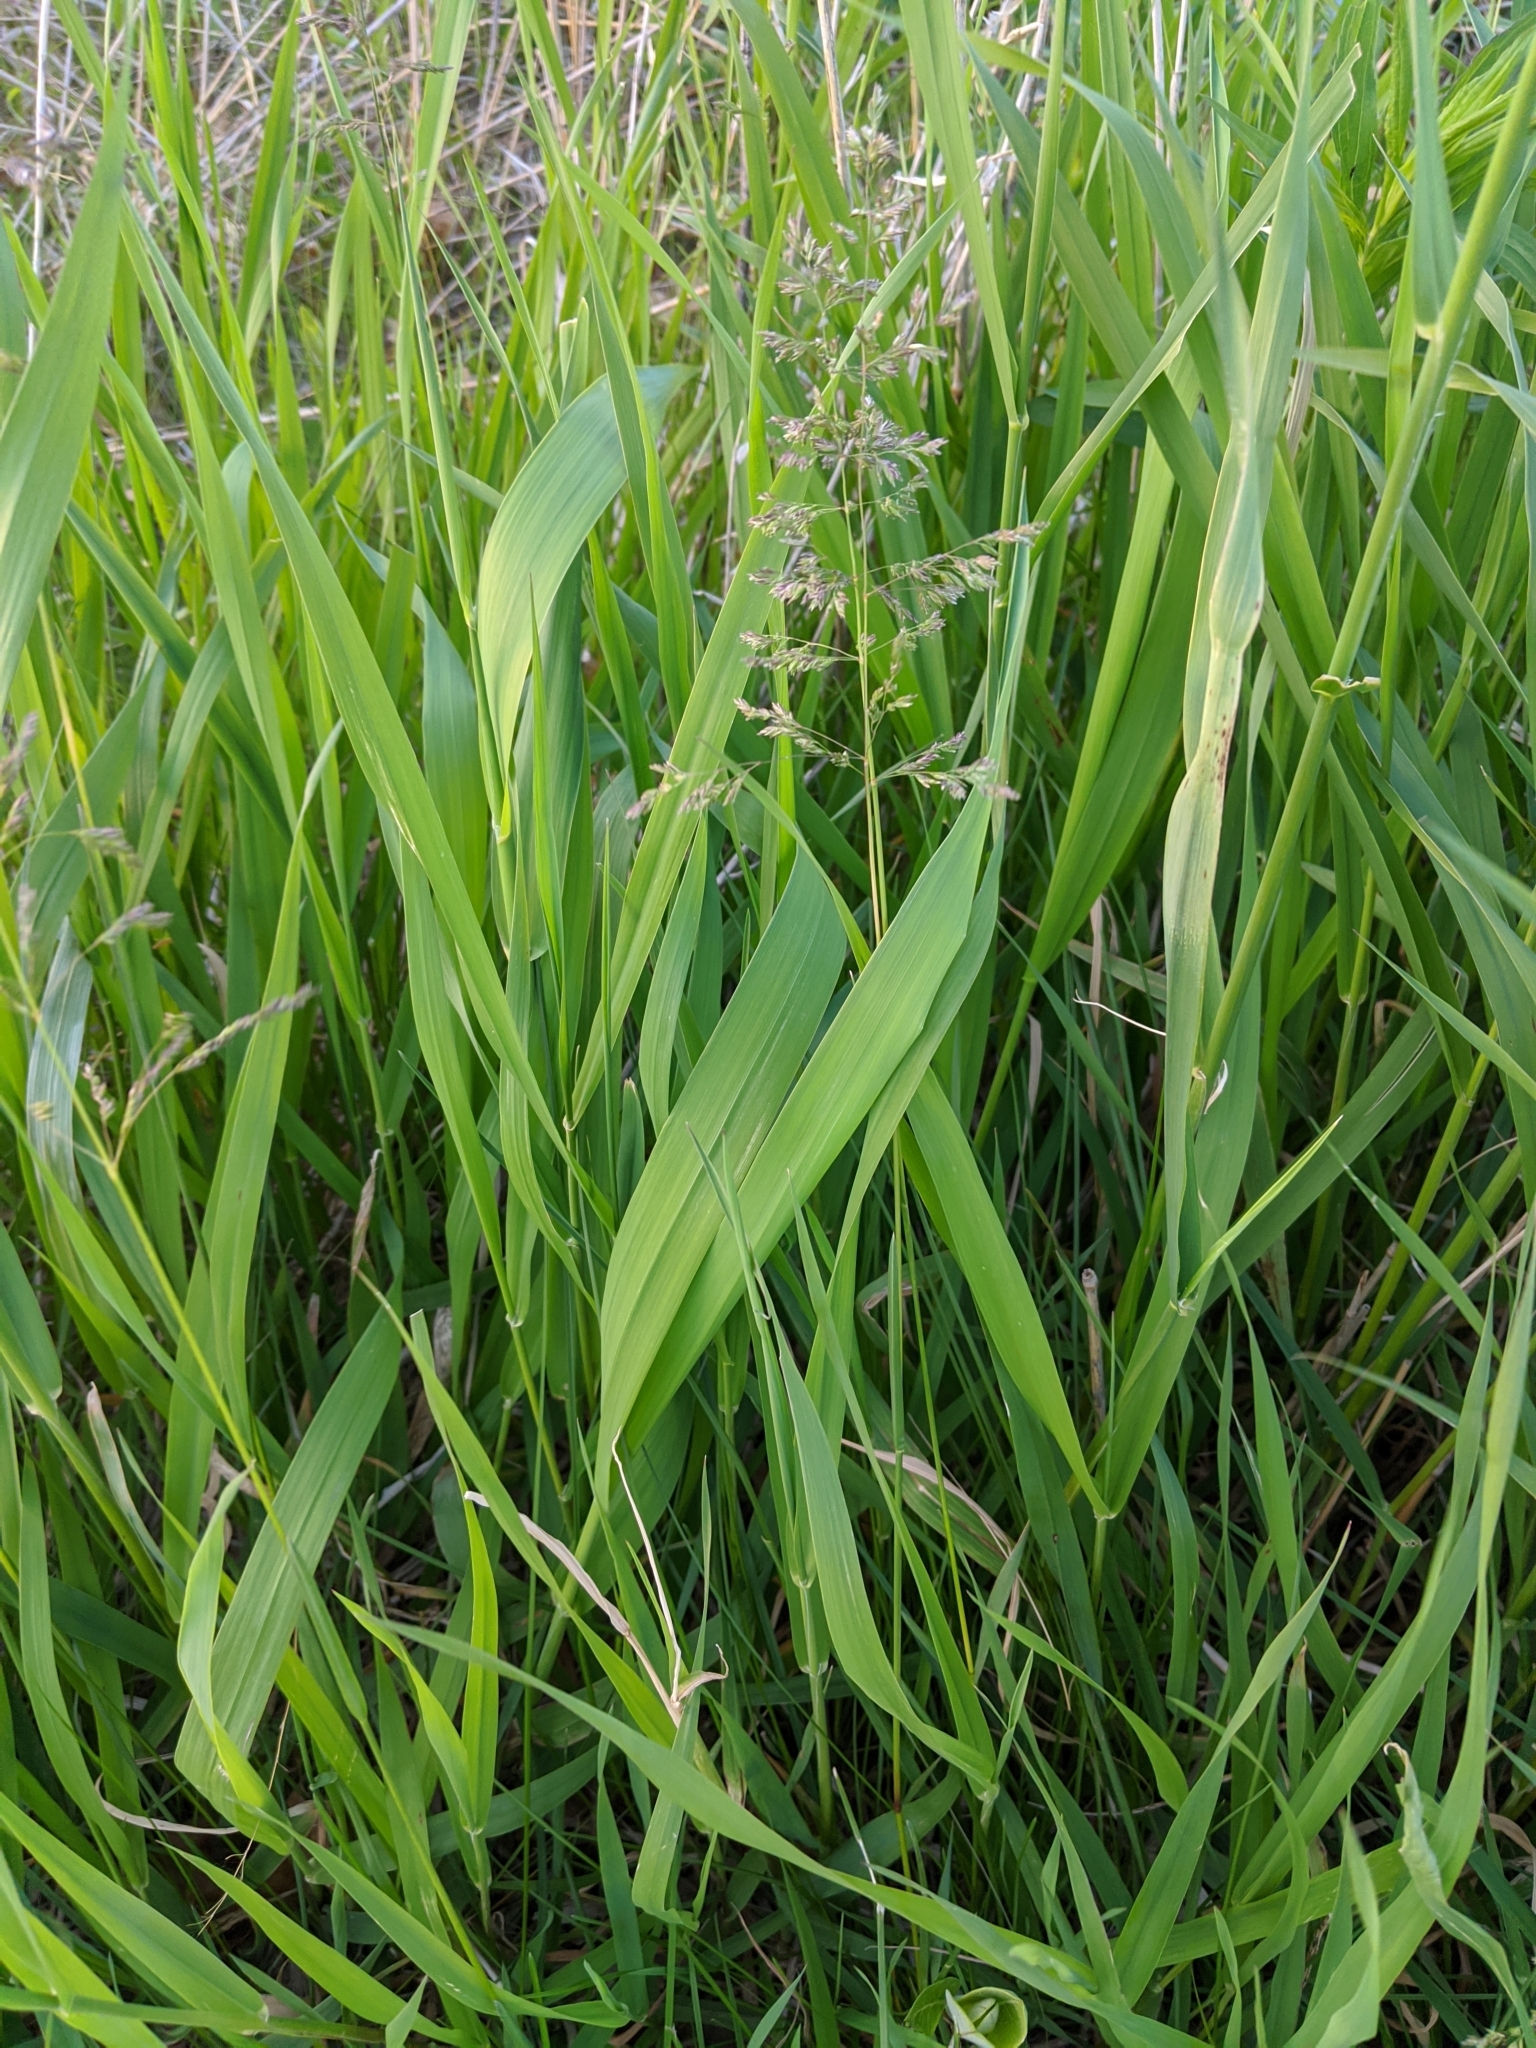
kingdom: Plantae
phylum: Tracheophyta
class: Liliopsida
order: Poales
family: Poaceae
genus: Poa
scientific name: Poa pratensis
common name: Kentucky bluegrass
